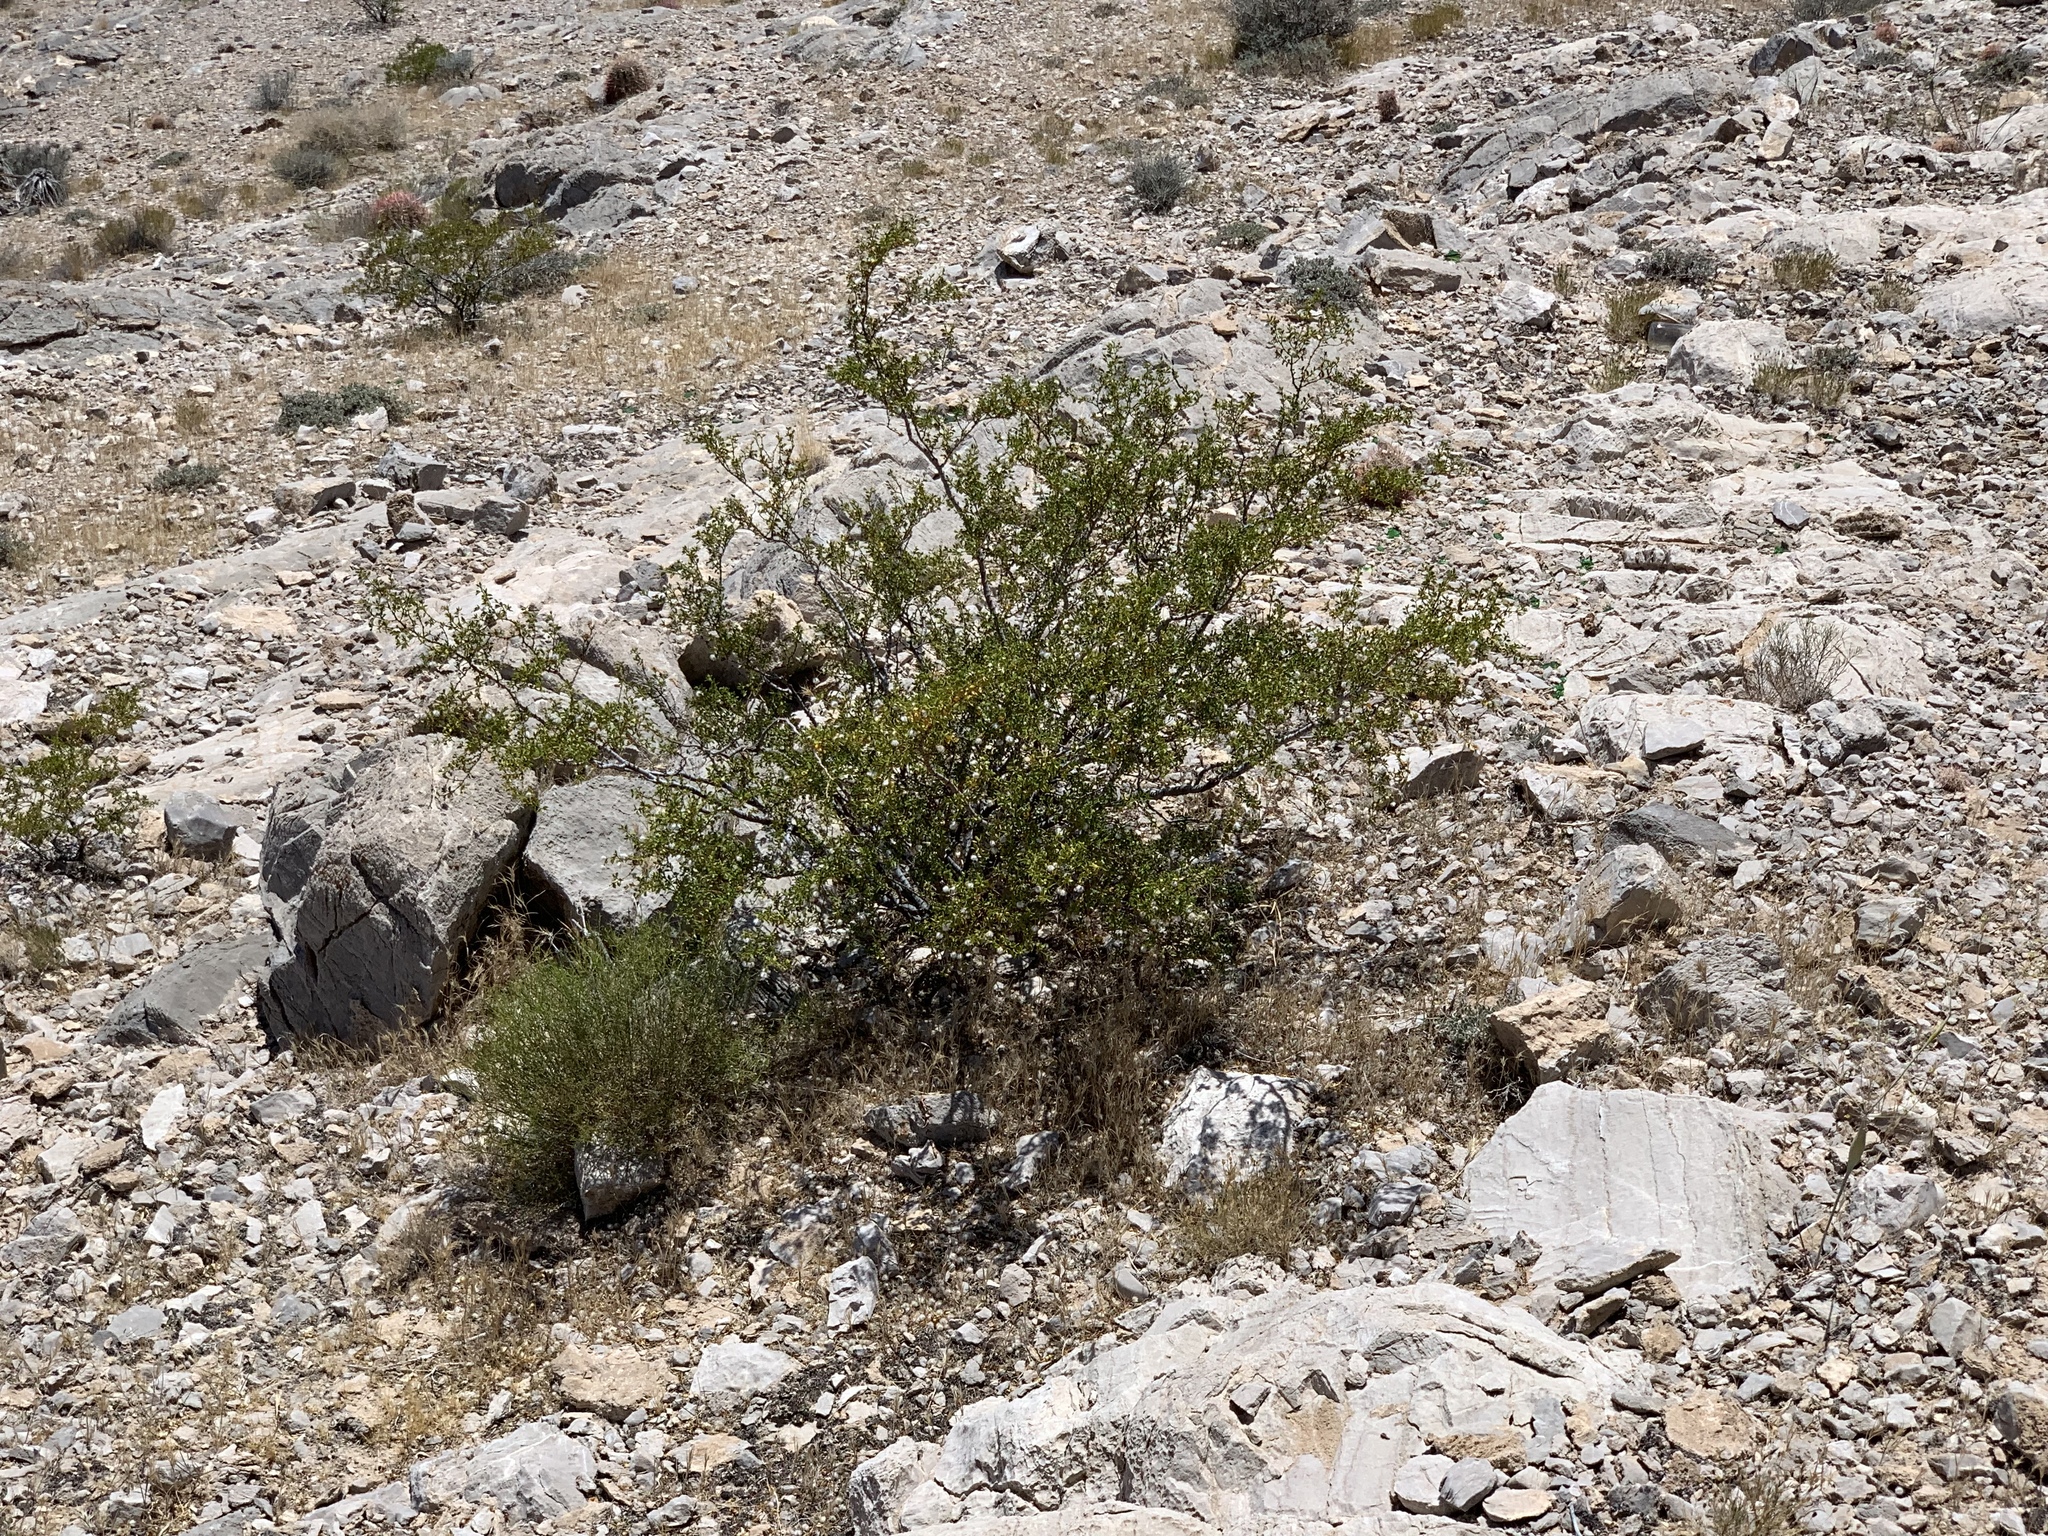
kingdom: Plantae
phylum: Tracheophyta
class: Magnoliopsida
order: Zygophyllales
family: Zygophyllaceae
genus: Larrea
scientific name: Larrea tridentata
